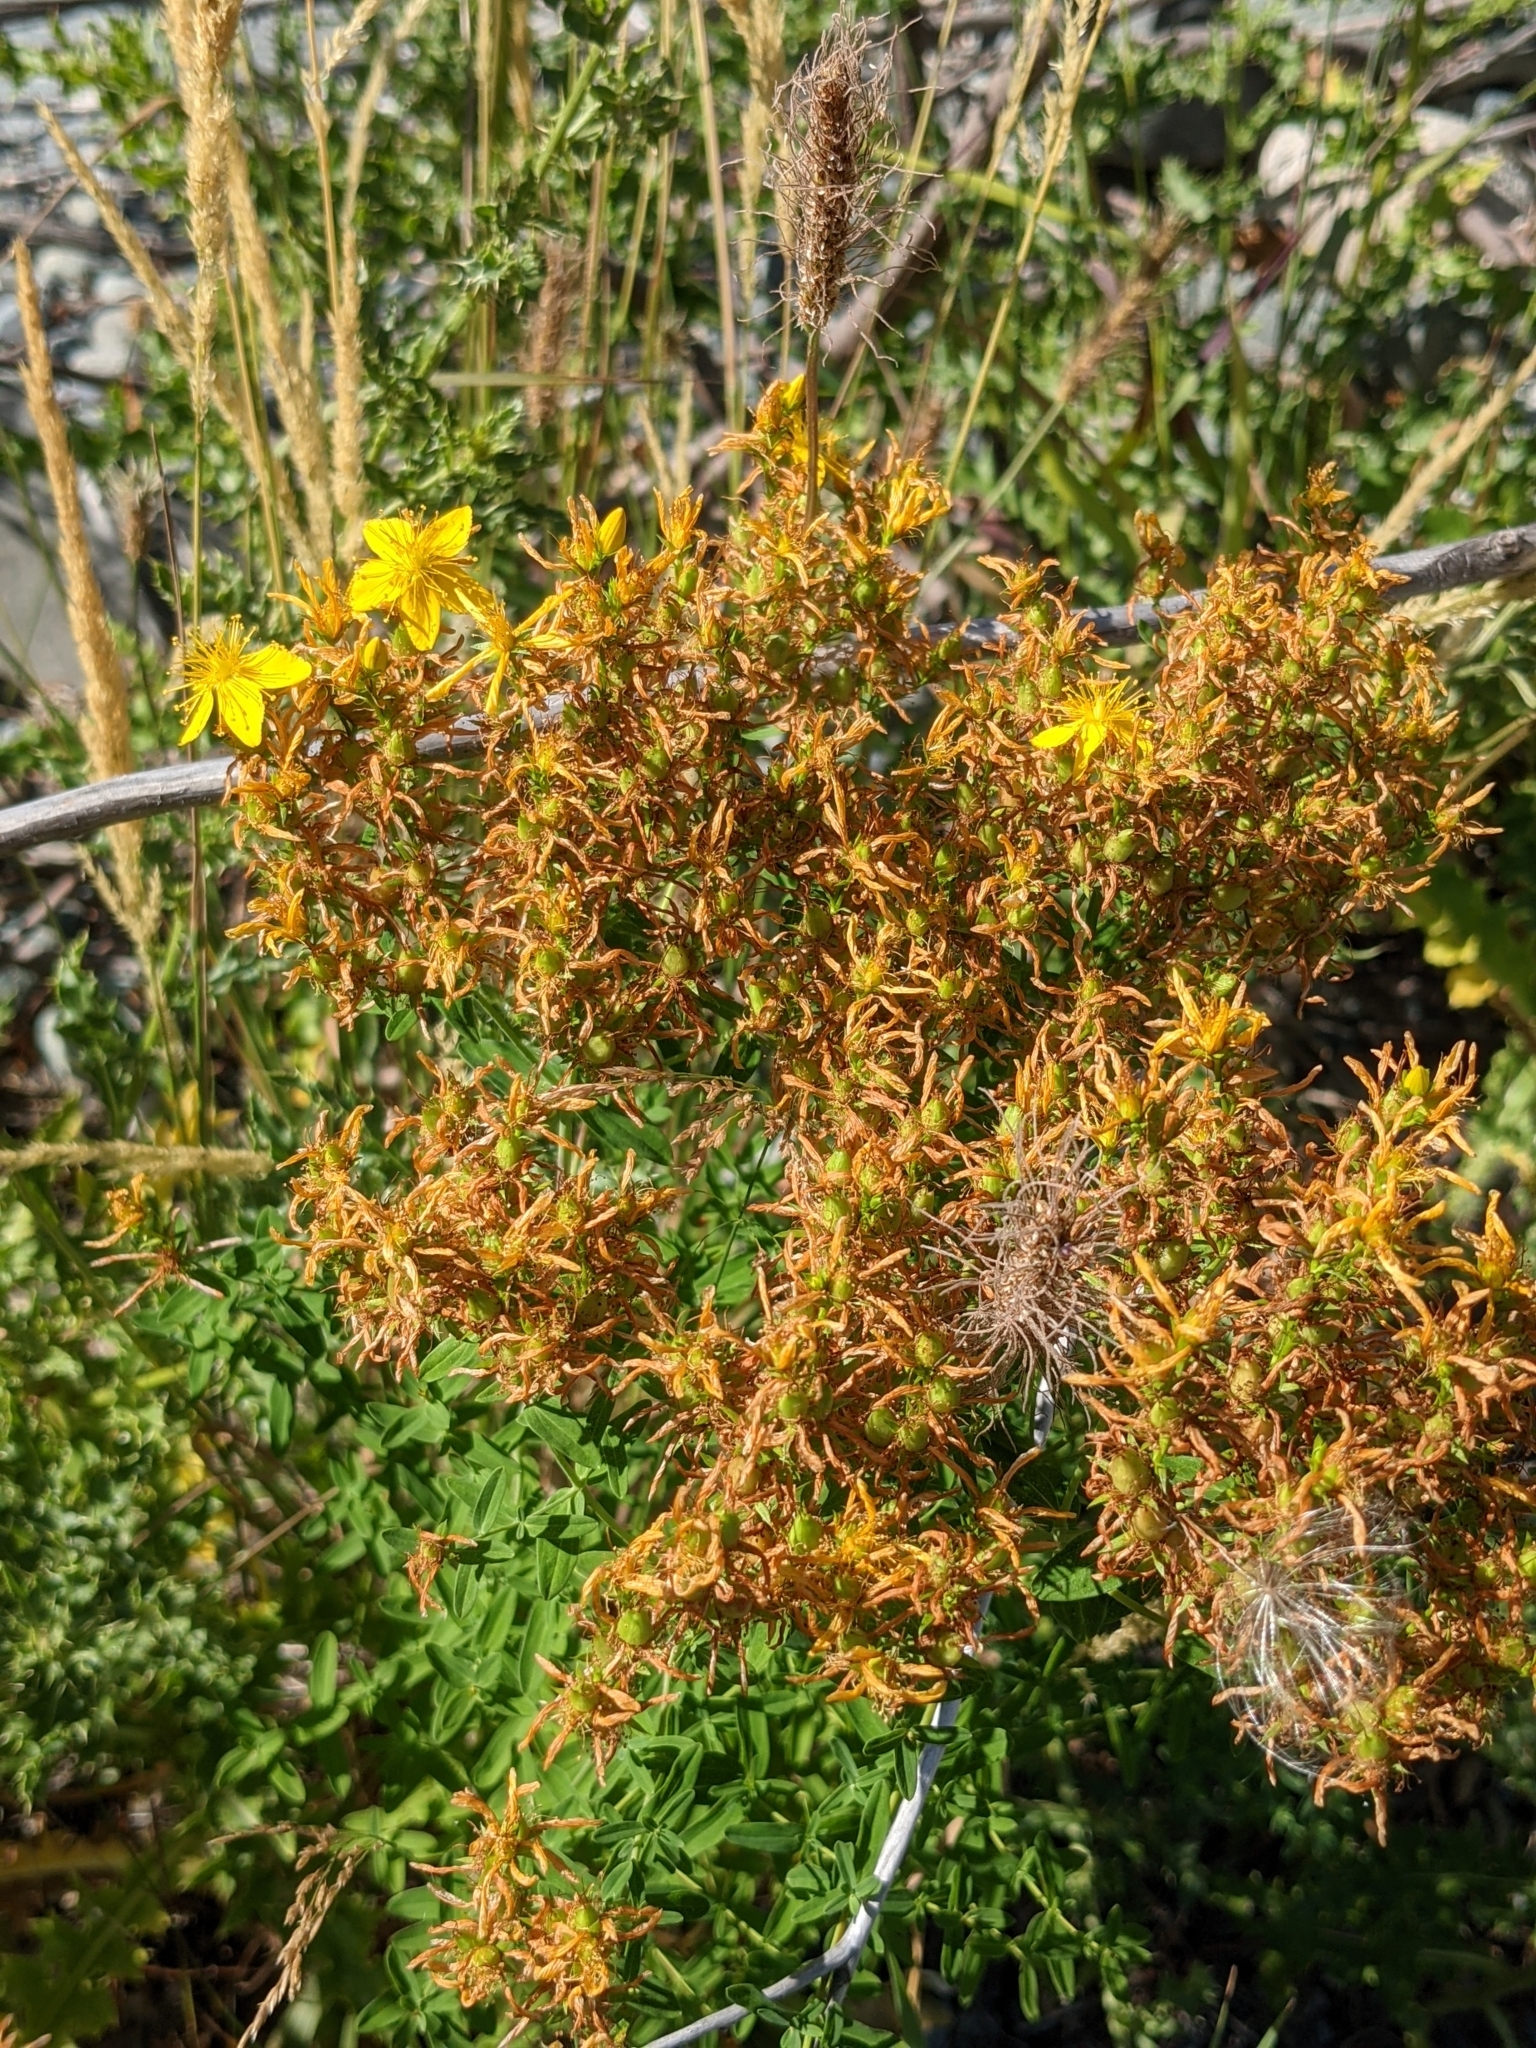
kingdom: Plantae
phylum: Tracheophyta
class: Magnoliopsida
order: Malpighiales
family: Hypericaceae
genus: Hypericum
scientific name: Hypericum perforatum
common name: Common st. johnswort
